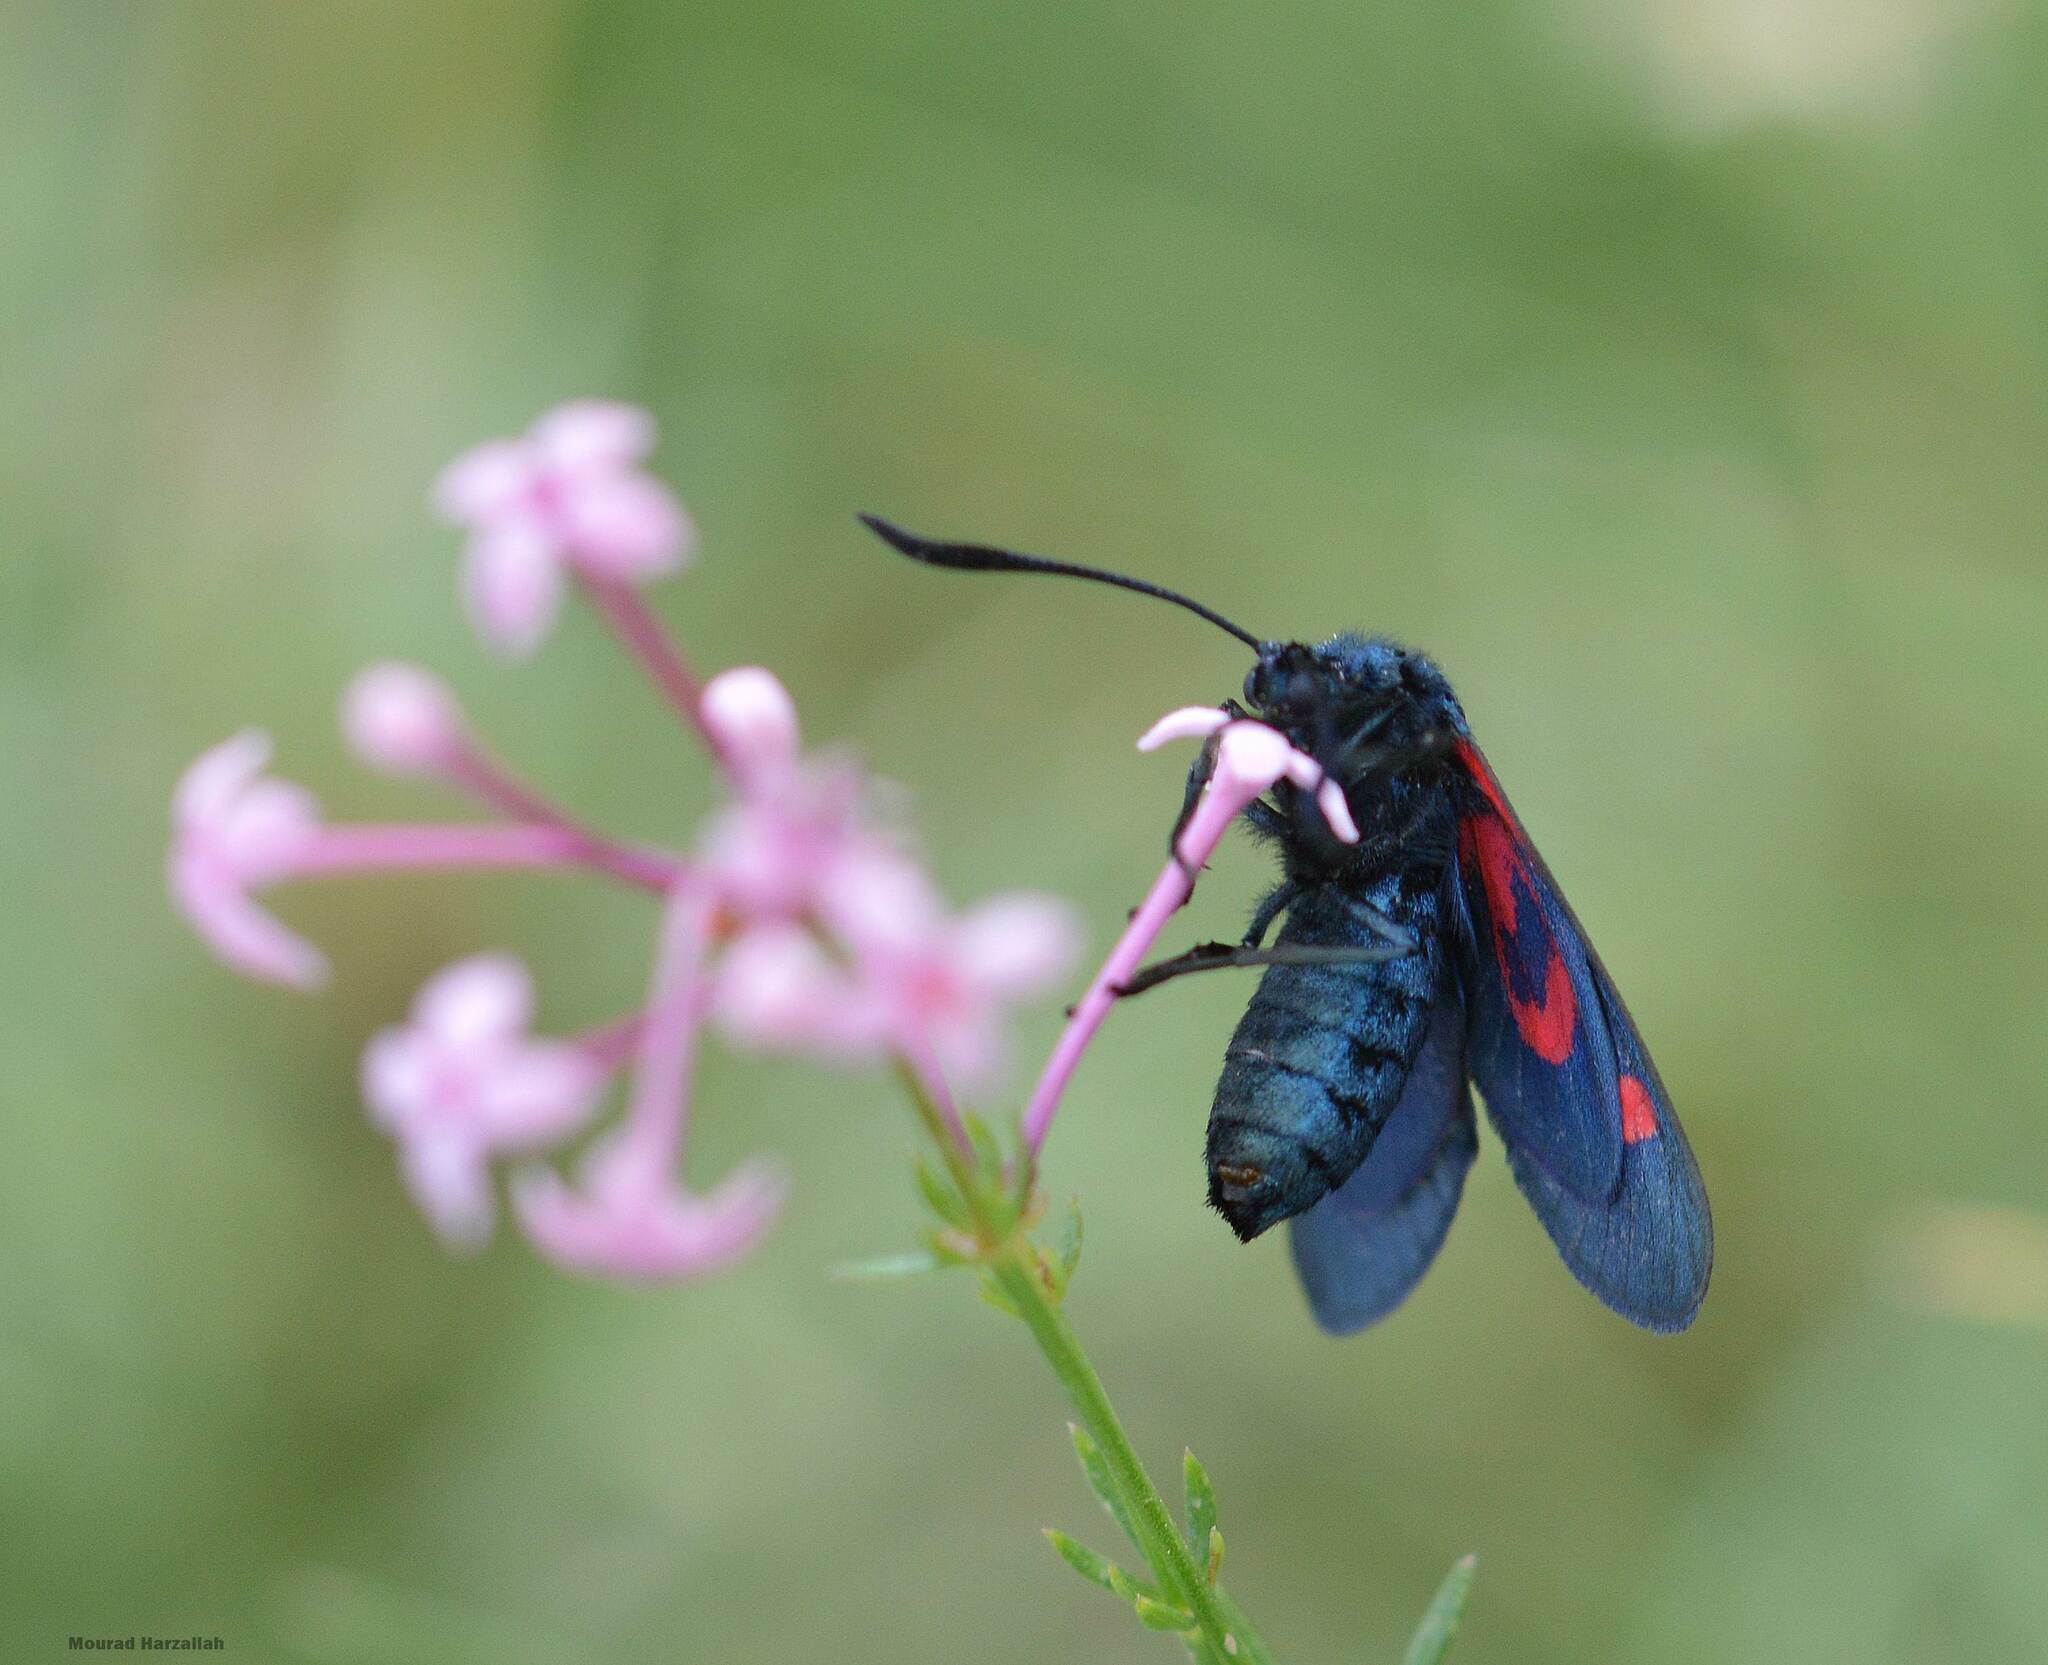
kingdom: Animalia
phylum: Arthropoda
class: Insecta
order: Lepidoptera
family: Zygaenidae
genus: Zygaena
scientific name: Zygaena trifolii
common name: Five-spot burnet
